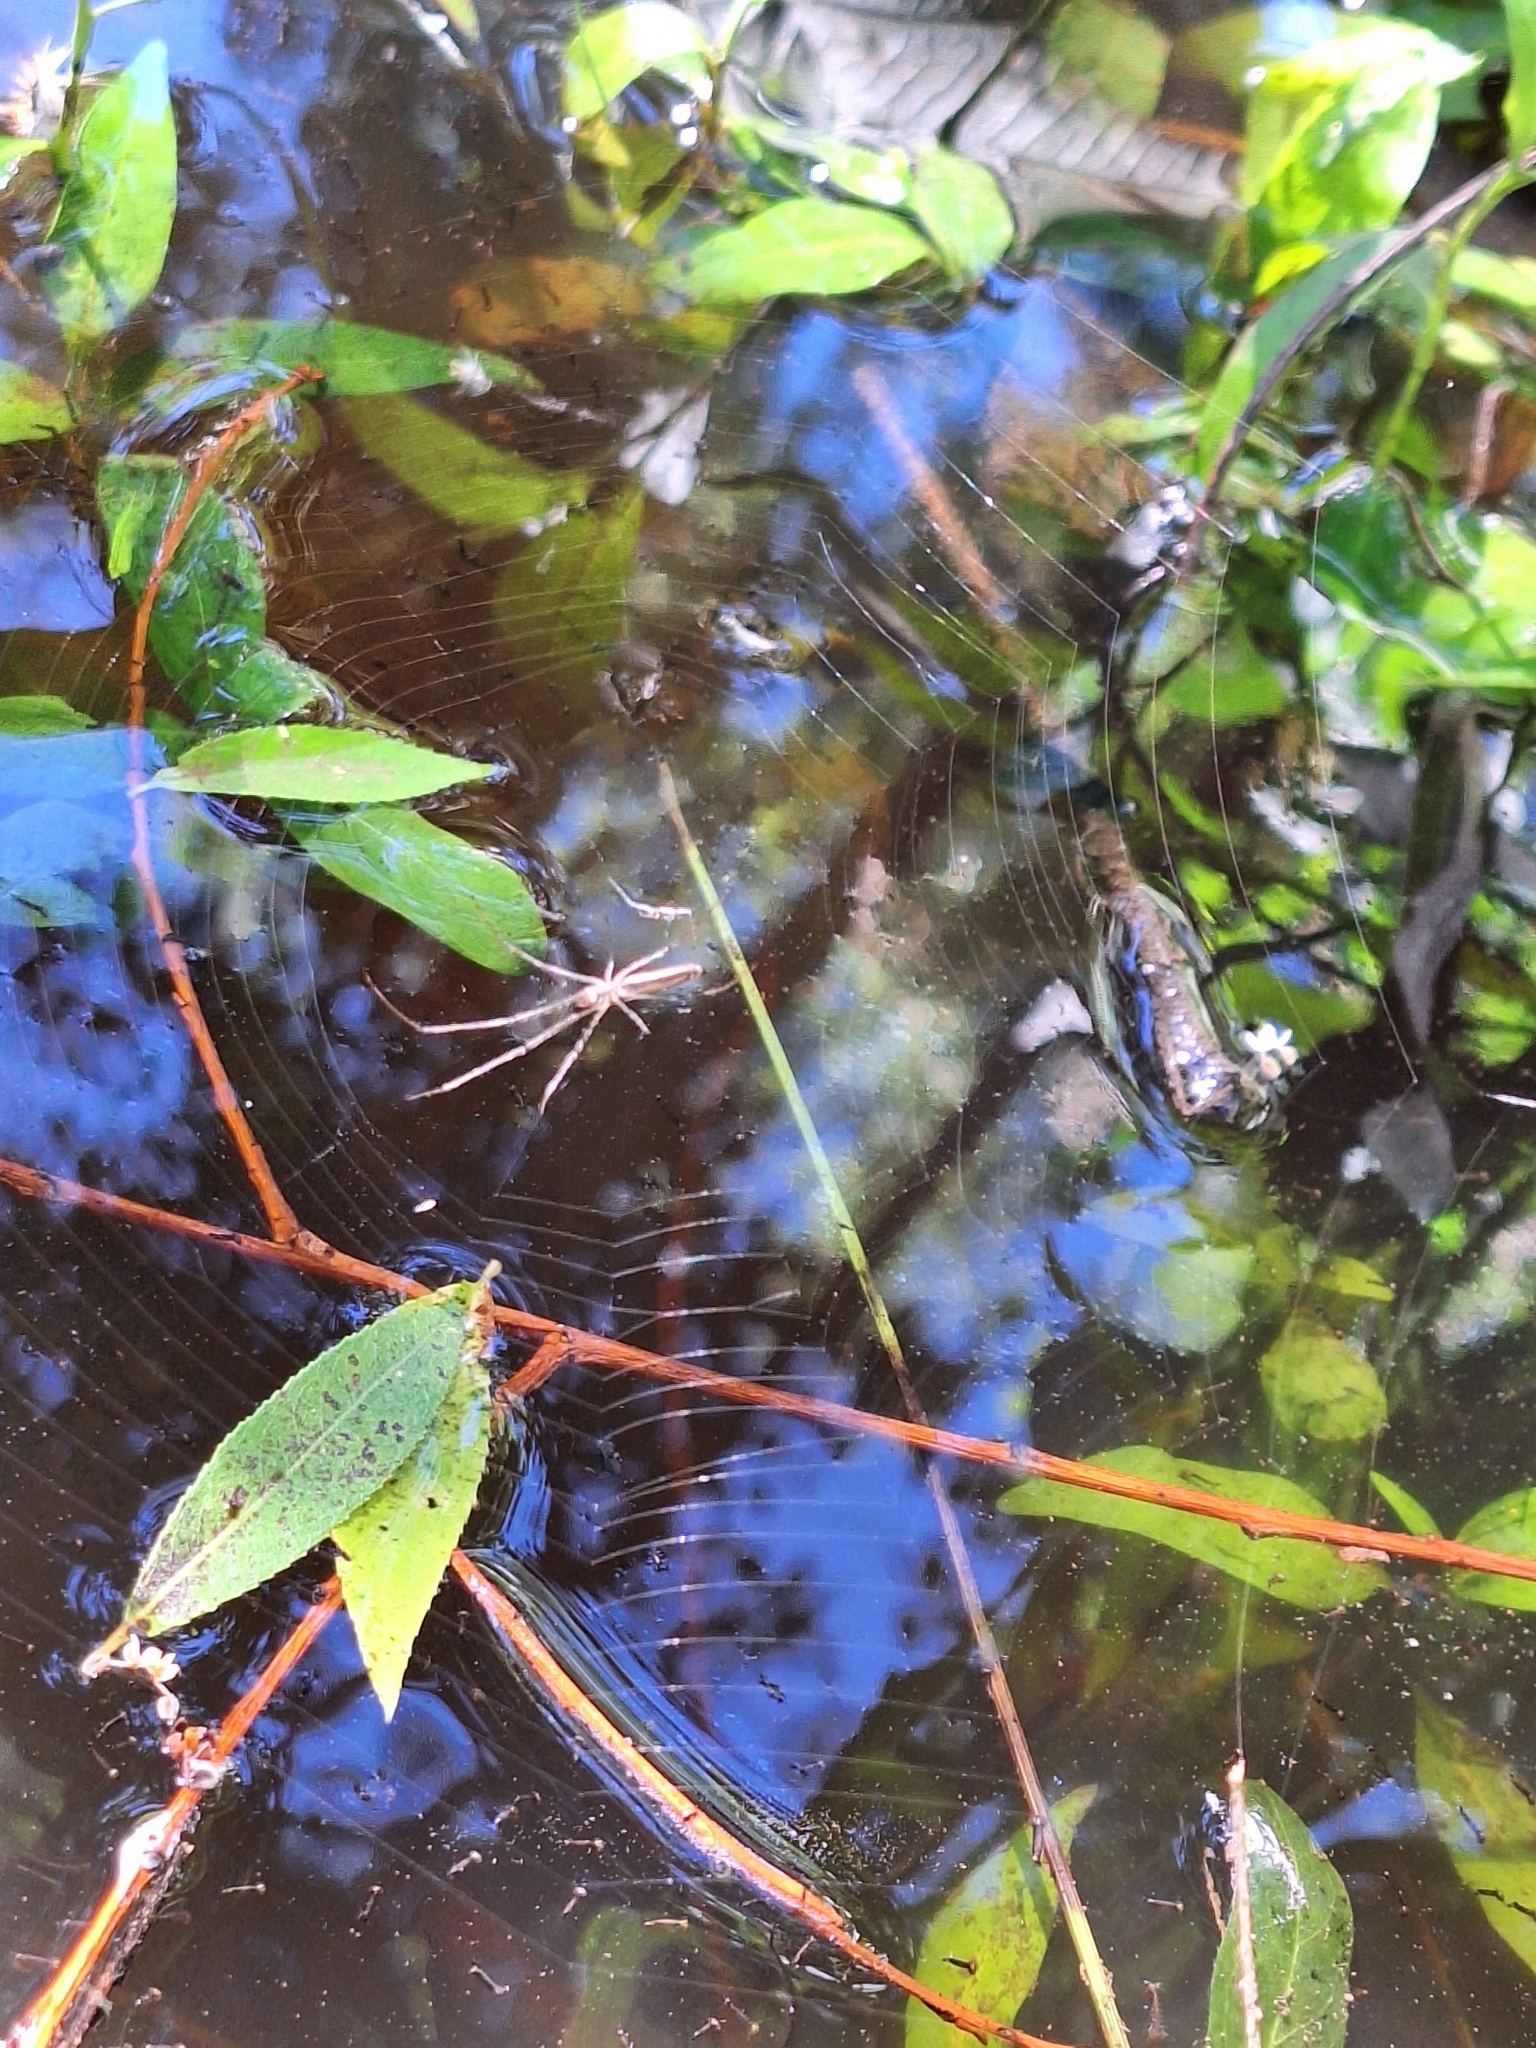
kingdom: Animalia
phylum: Arthropoda
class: Arachnida
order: Araneae
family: Tetragnathidae
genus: Tetragnatha
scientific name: Tetragnatha
